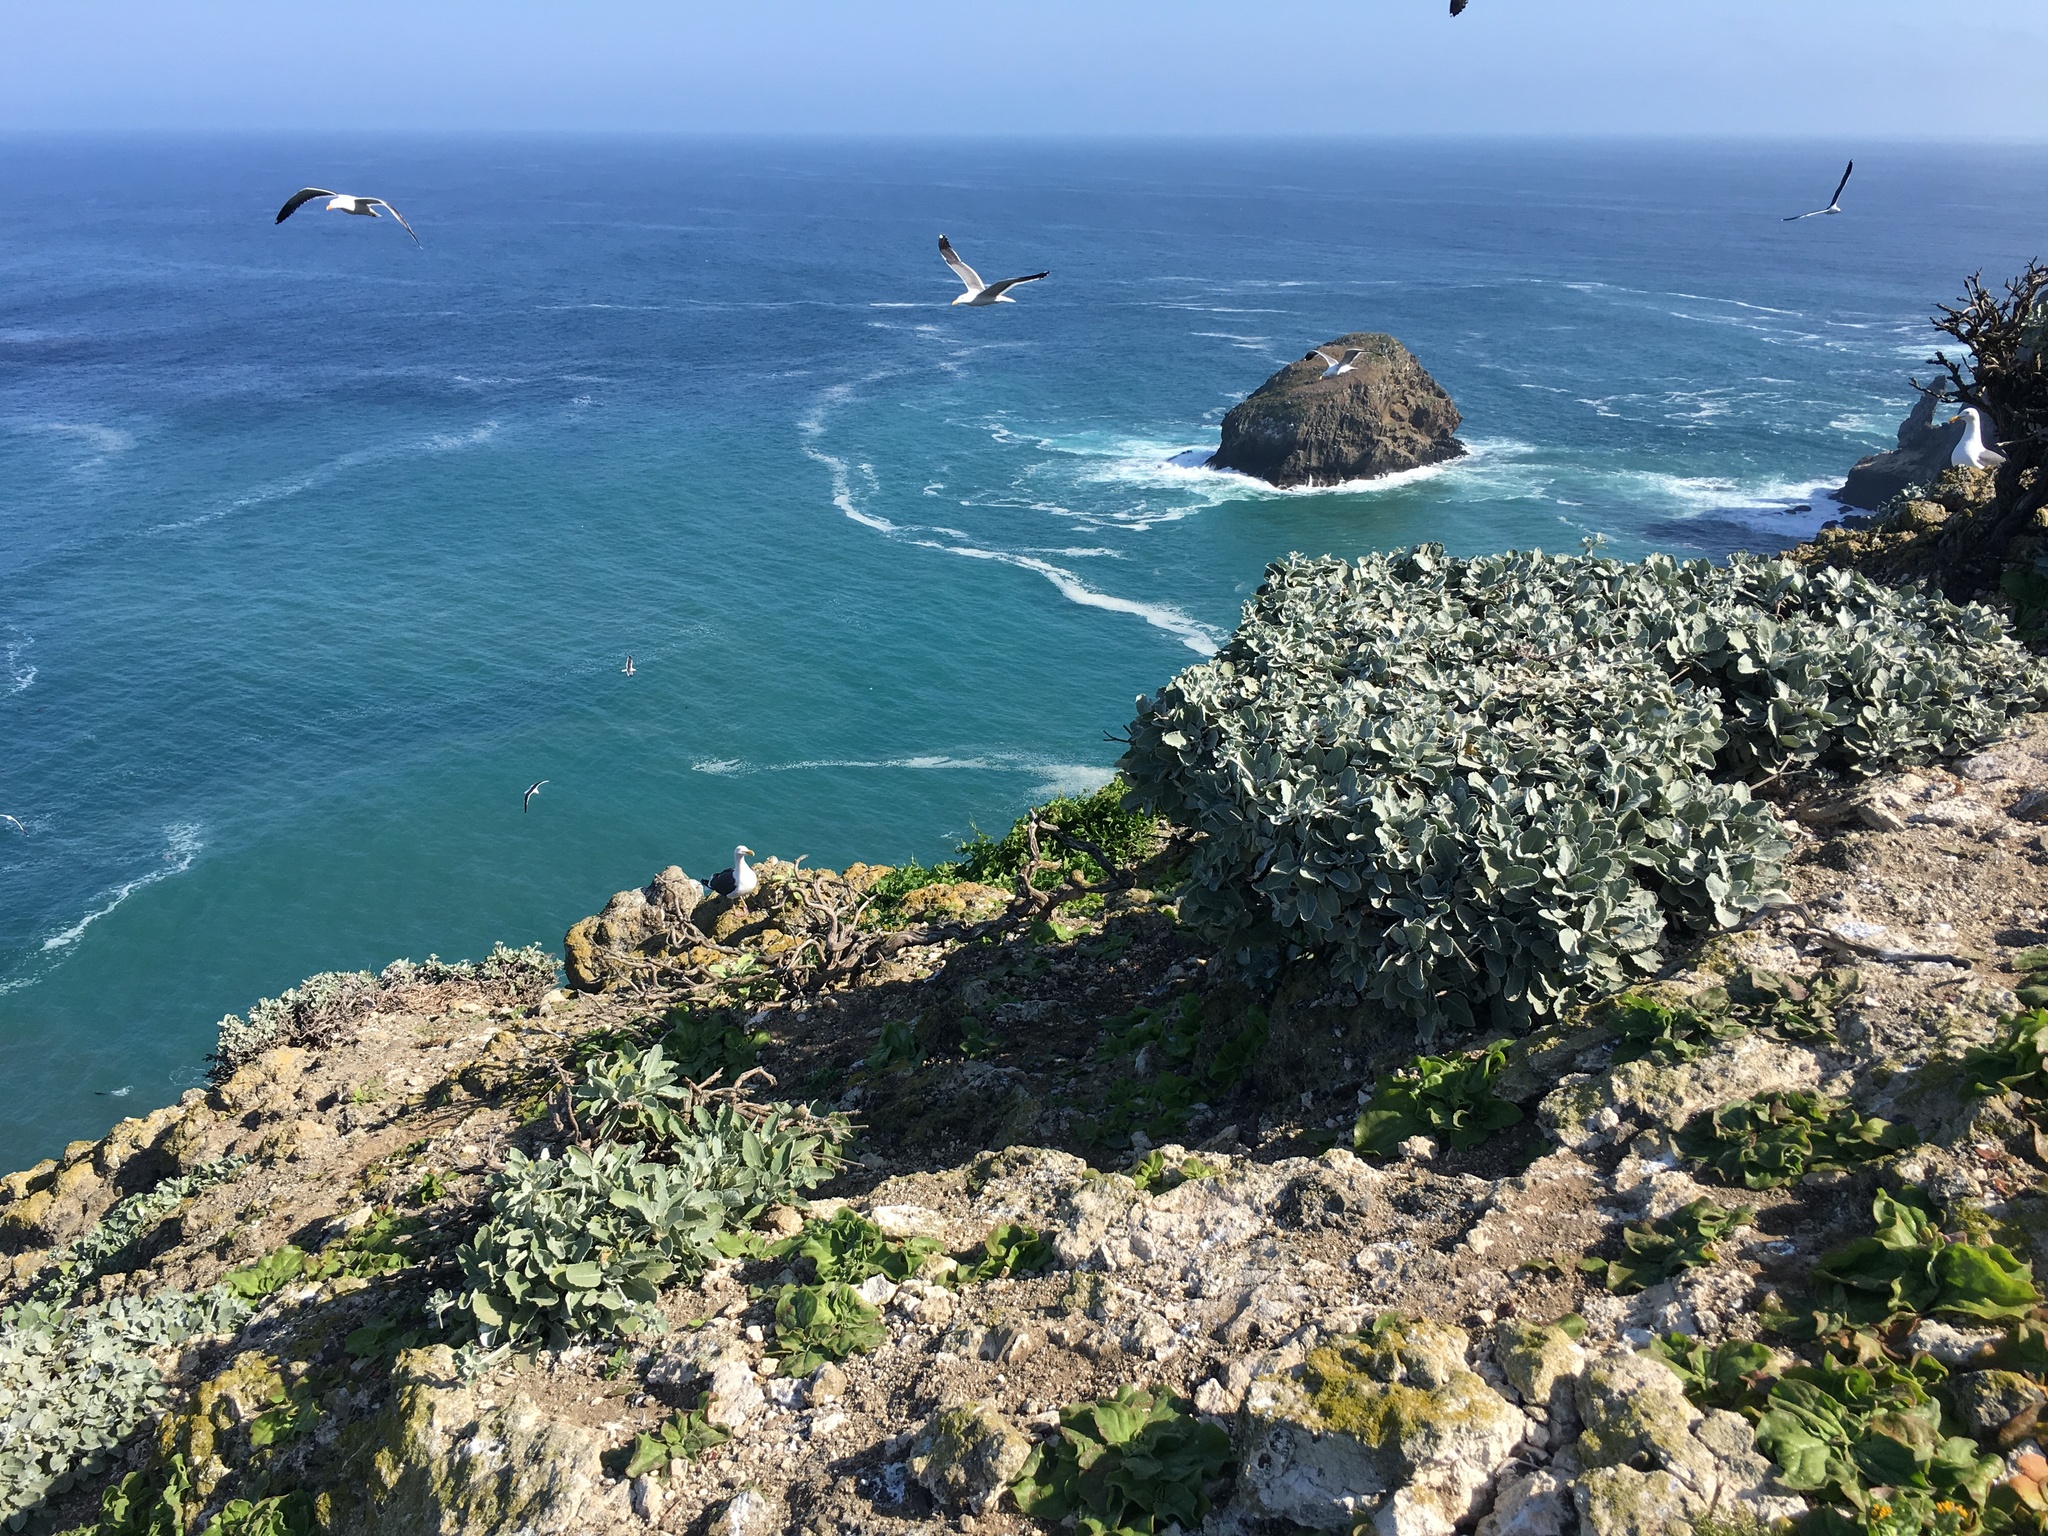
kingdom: Plantae
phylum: Tracheophyta
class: Magnoliopsida
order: Caryophyllales
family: Polygonaceae
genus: Eriogonum
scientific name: Eriogonum giganteum
